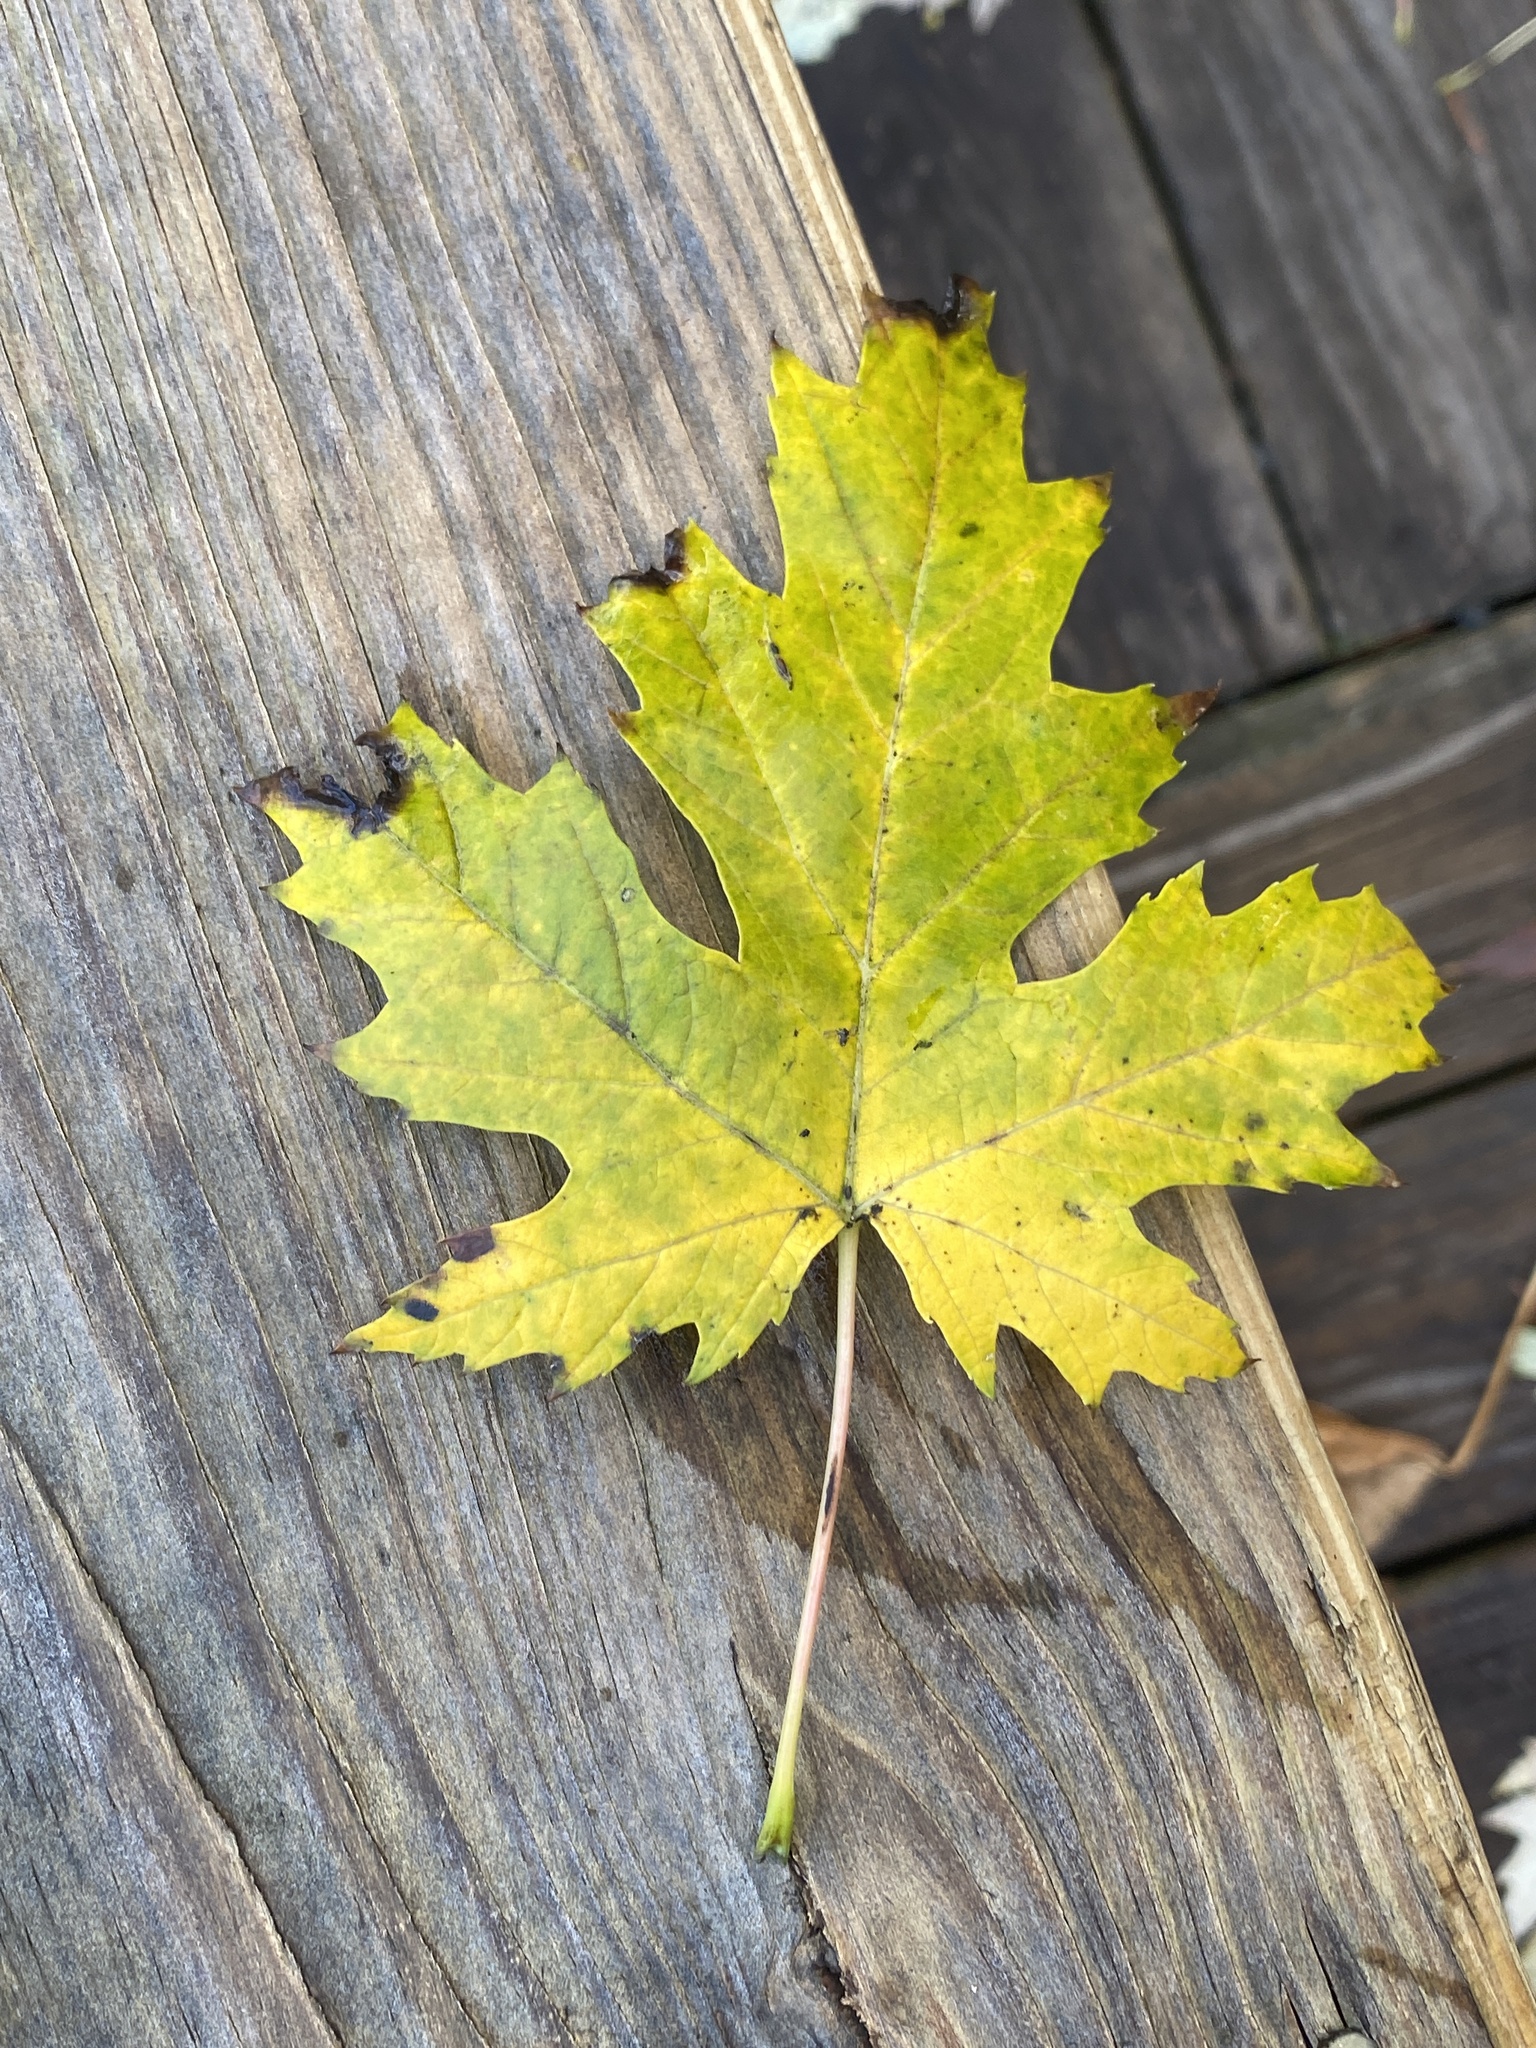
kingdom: Plantae
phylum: Tracheophyta
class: Magnoliopsida
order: Sapindales
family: Sapindaceae
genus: Acer
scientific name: Acer saccharinum
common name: Silver maple
